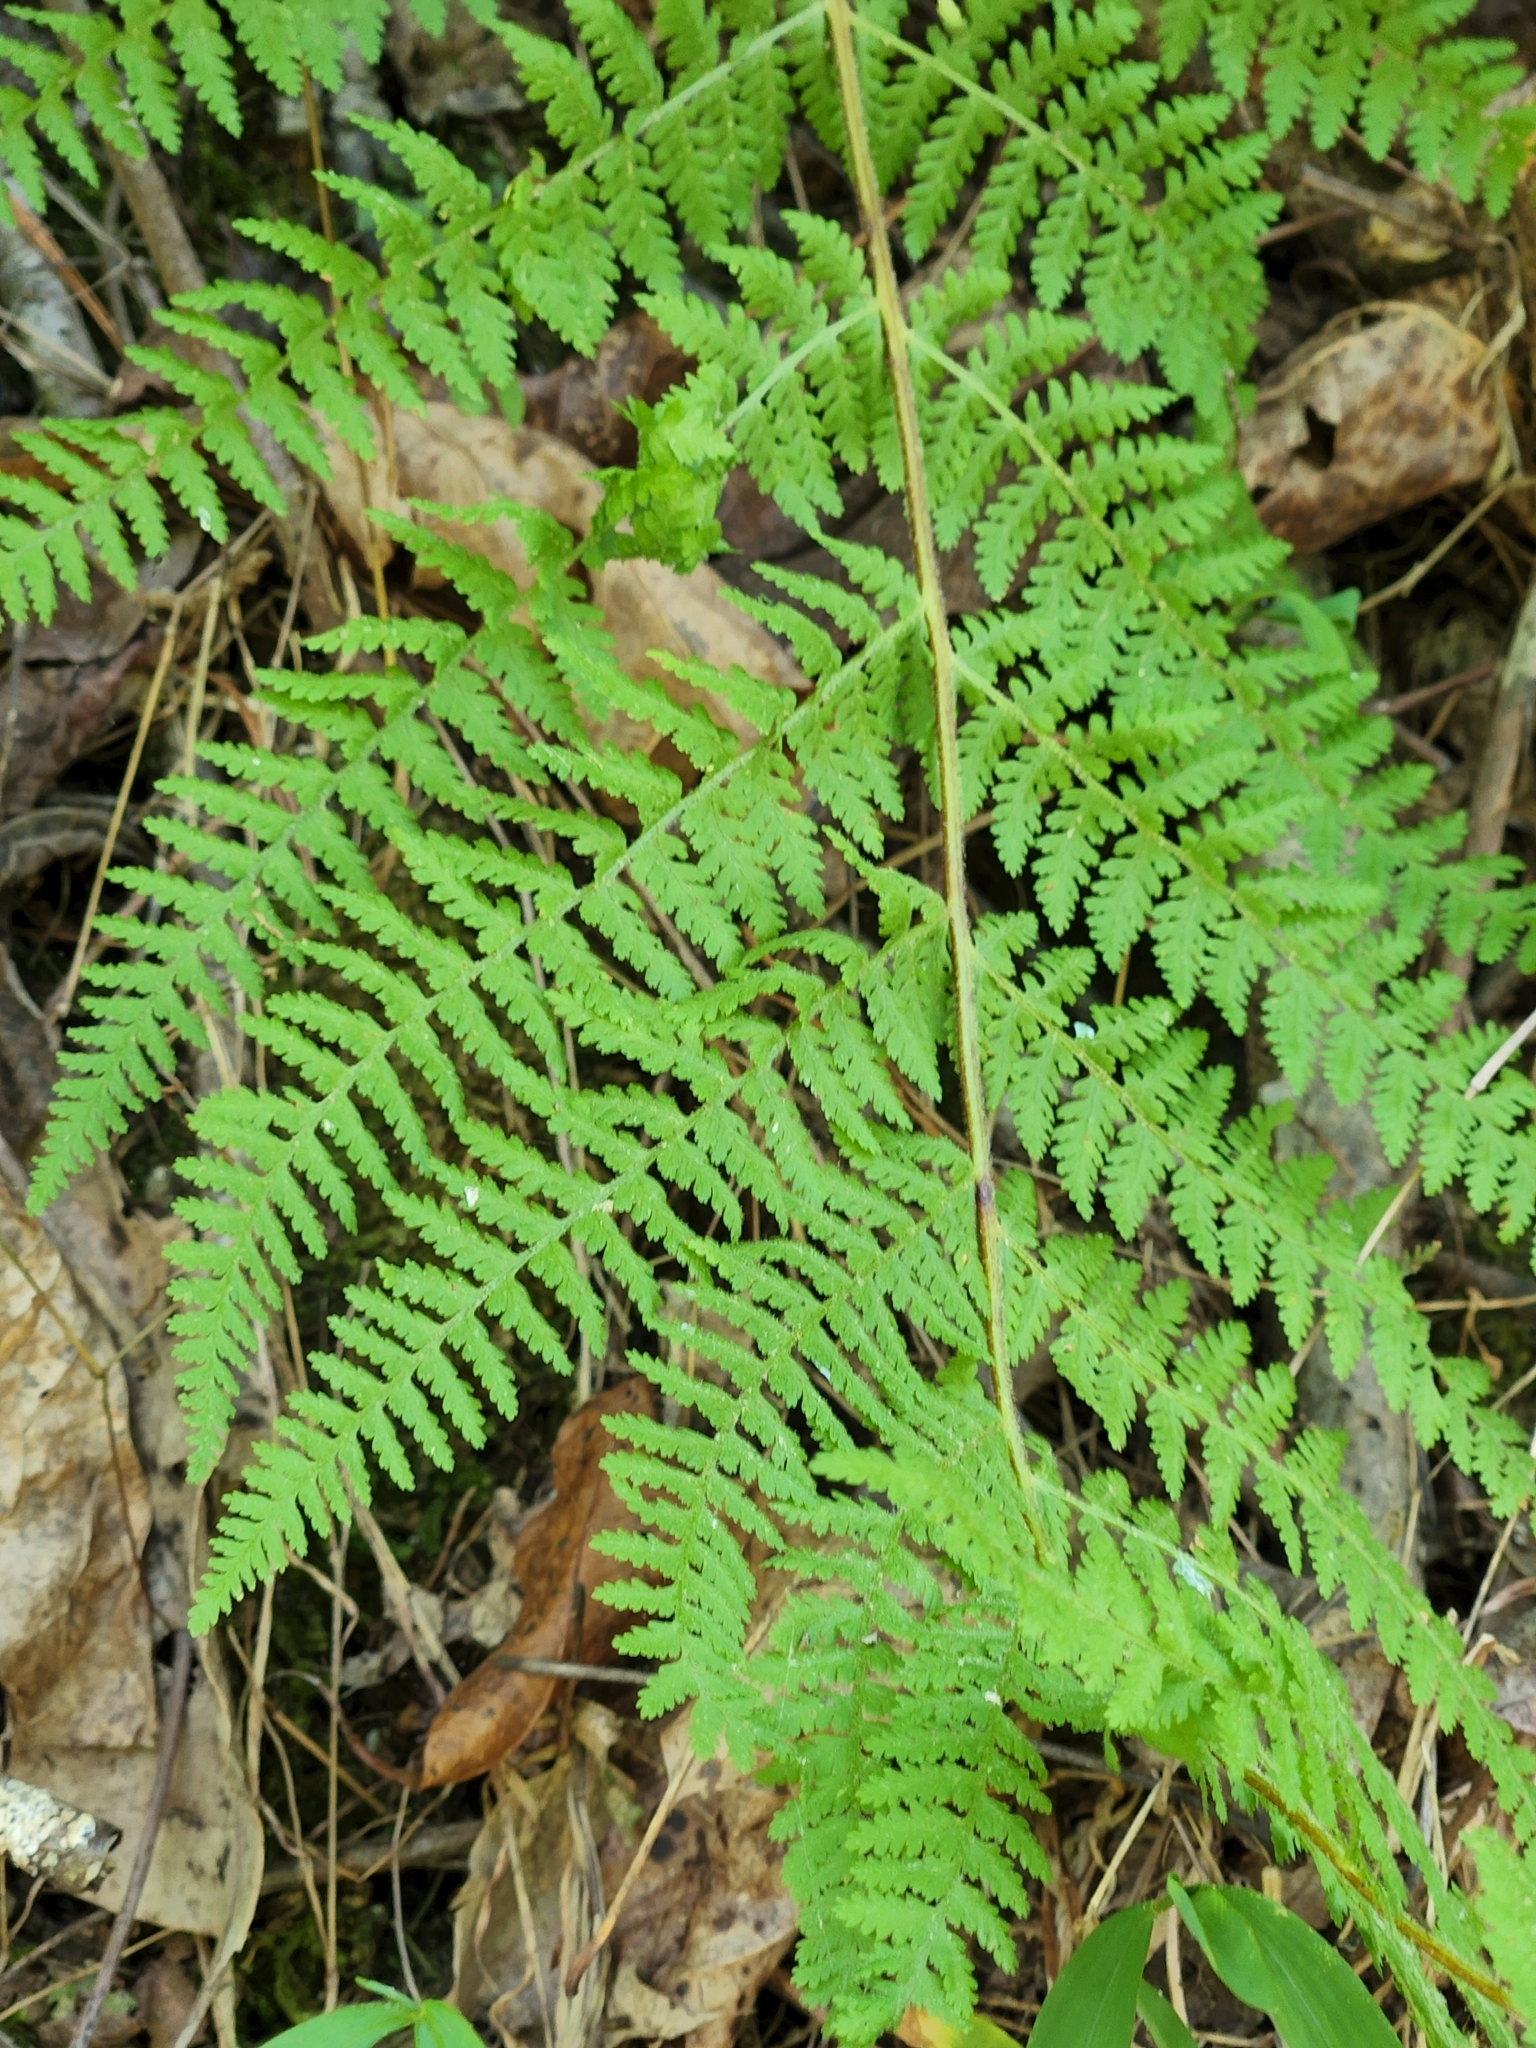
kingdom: Plantae
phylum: Tracheophyta
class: Polypodiopsida
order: Polypodiales
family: Dennstaedtiaceae
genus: Sitobolium
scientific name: Sitobolium punctilobum
